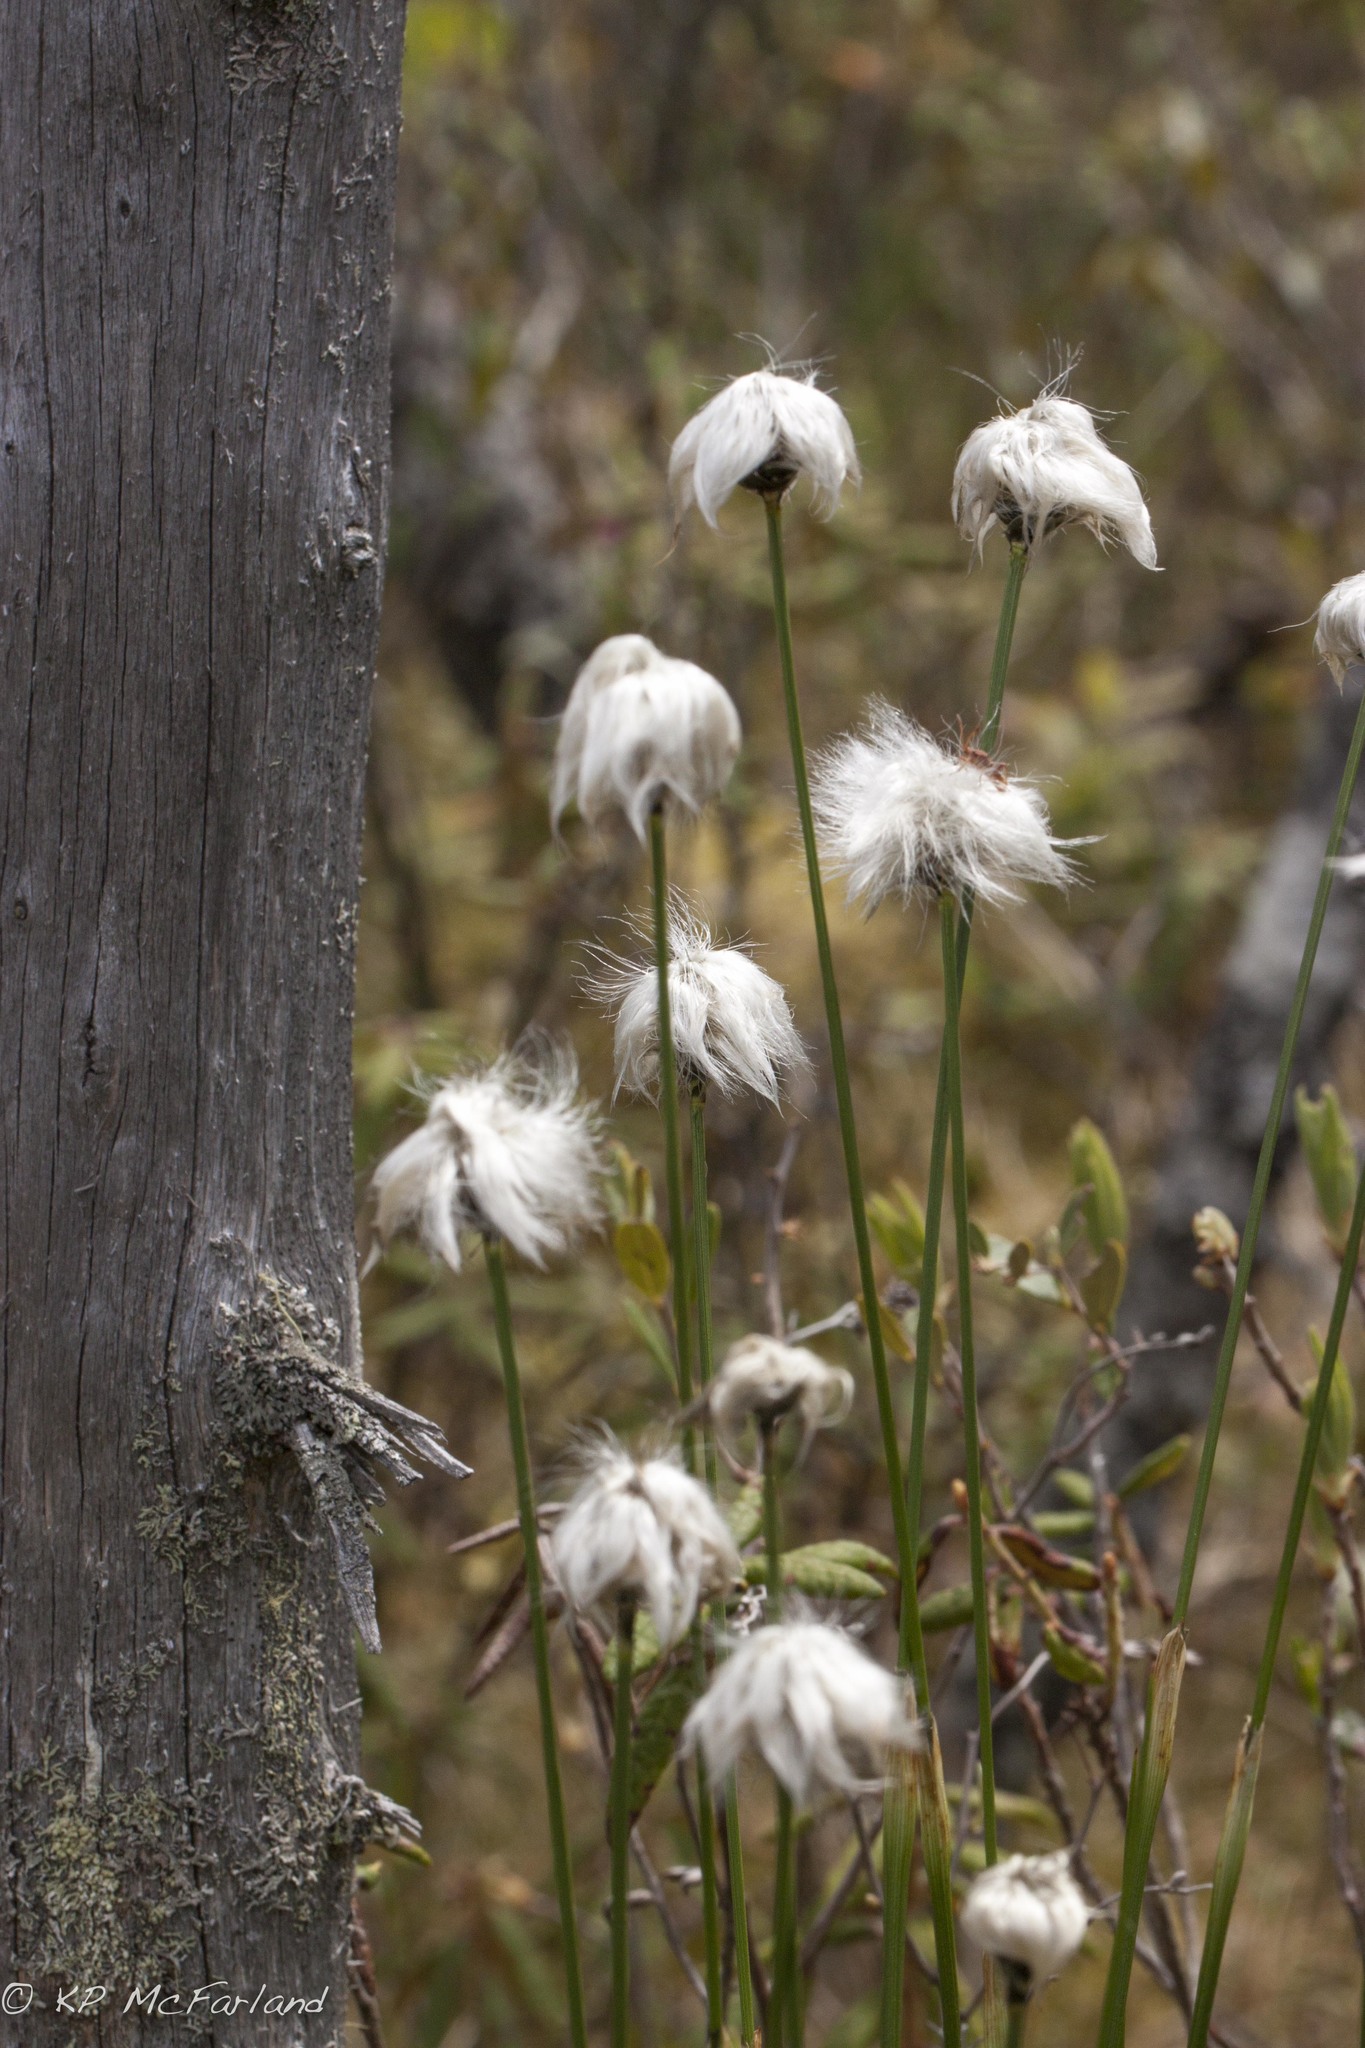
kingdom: Plantae
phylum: Tracheophyta
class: Liliopsida
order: Poales
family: Cyperaceae
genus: Eriophorum
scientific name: Eriophorum vaginatum
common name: Hare's-tail cottongrass
